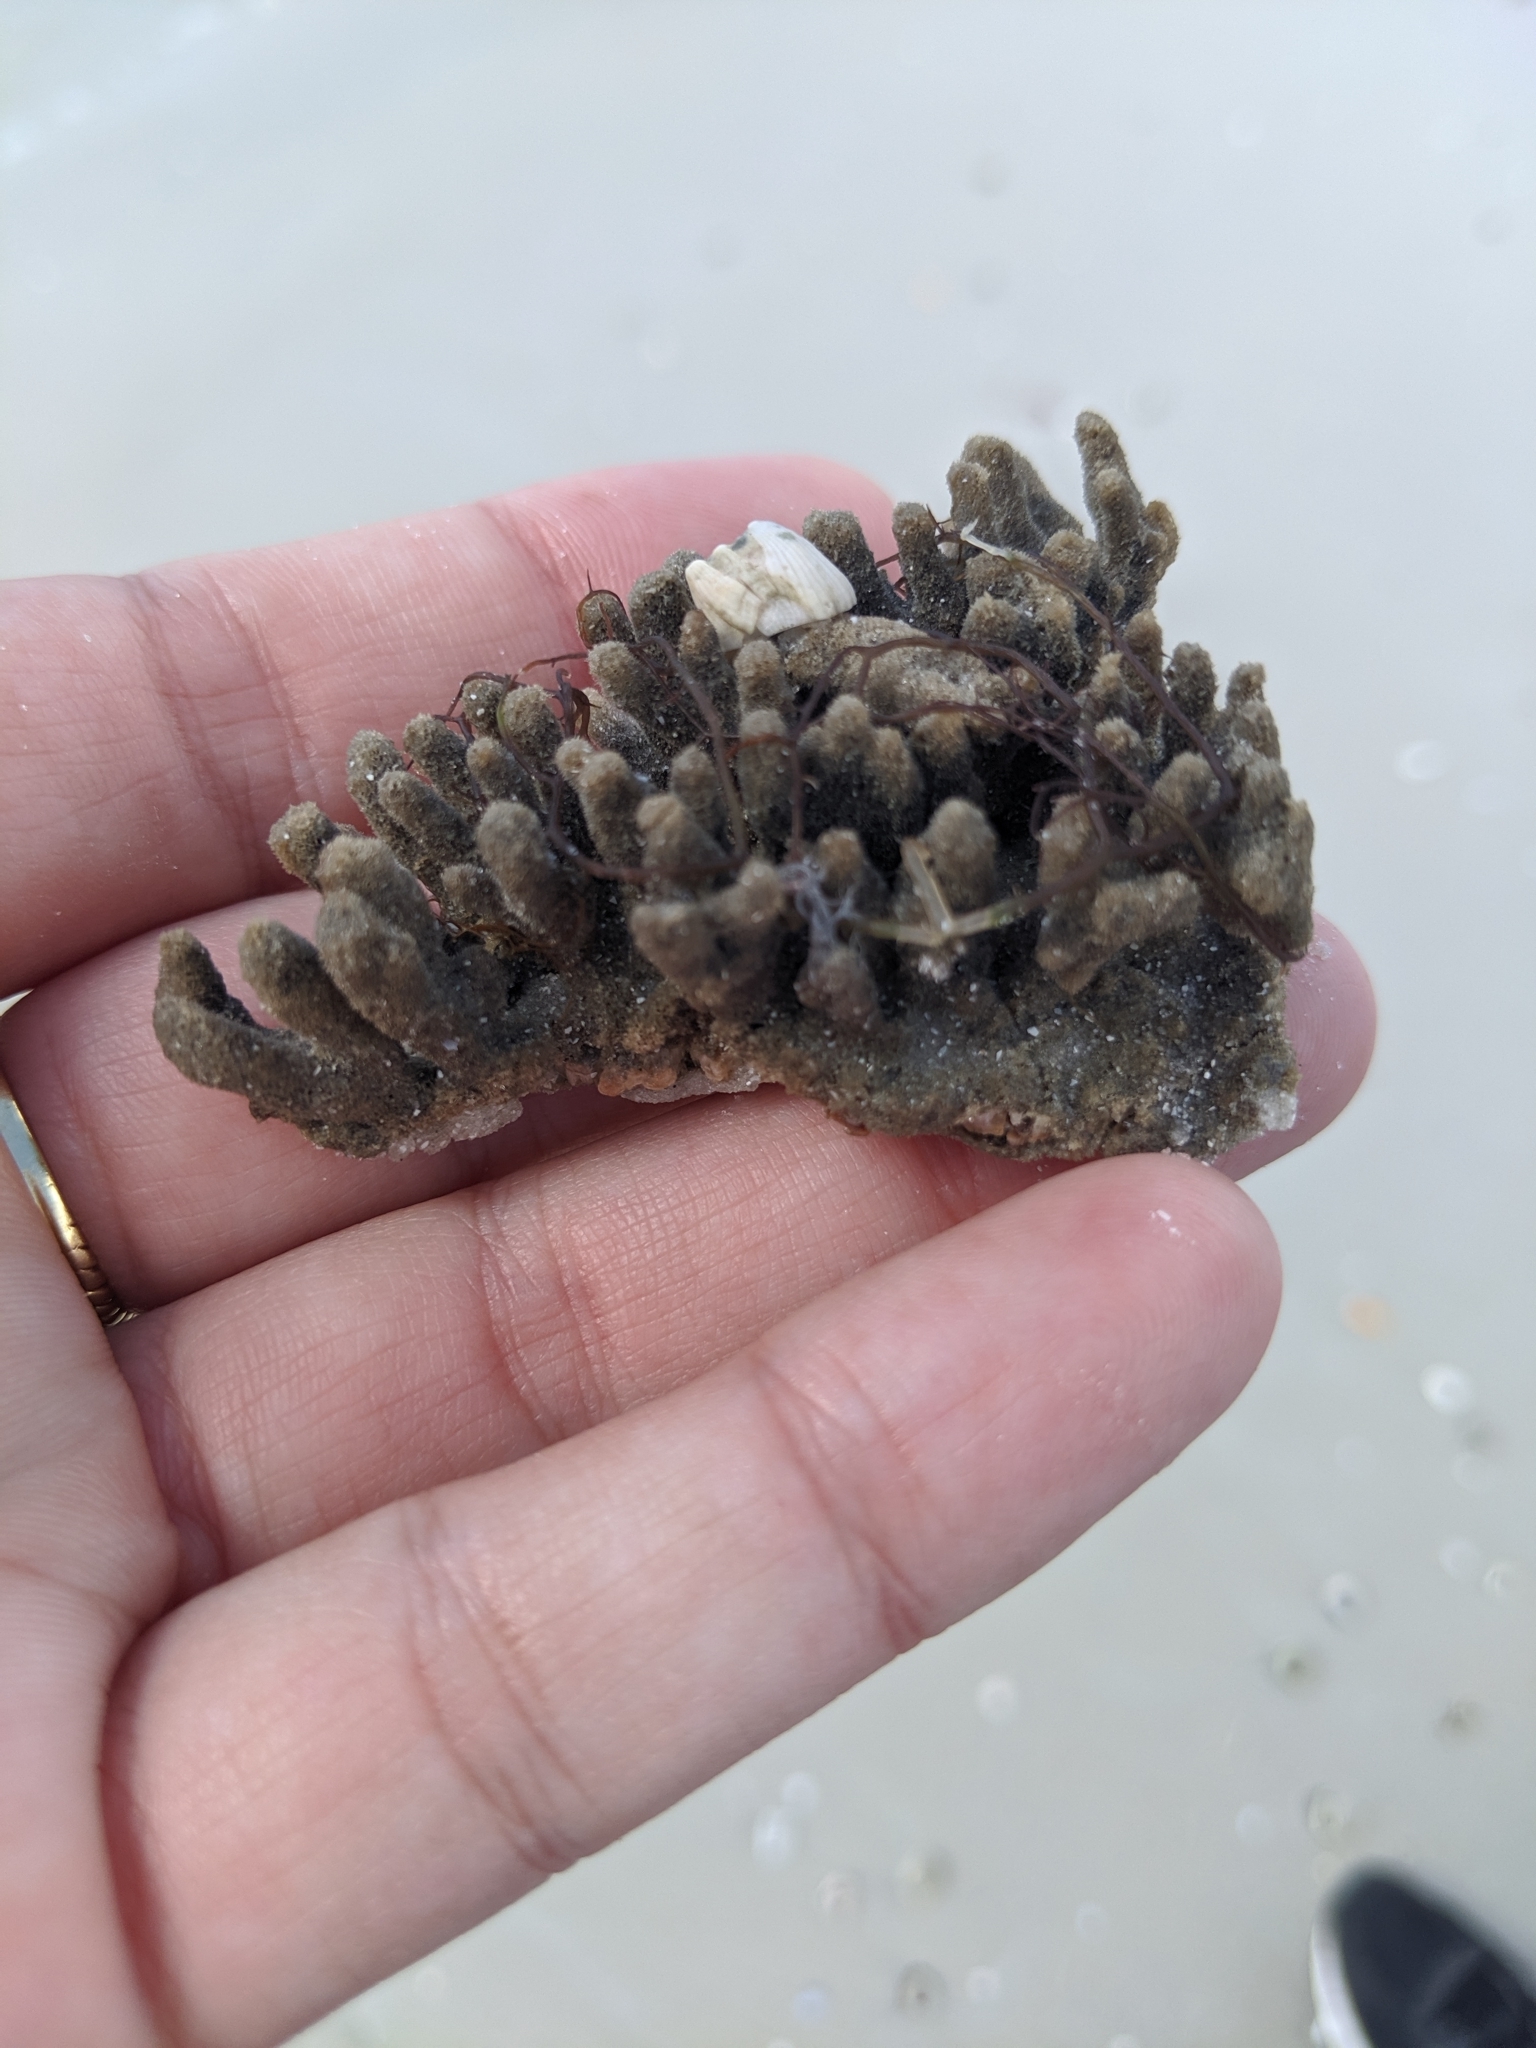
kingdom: Animalia
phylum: Porifera
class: Demospongiae
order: Poecilosclerida
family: Microcionidae
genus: Clathria
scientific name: Clathria prolifera
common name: Red beard sponge
